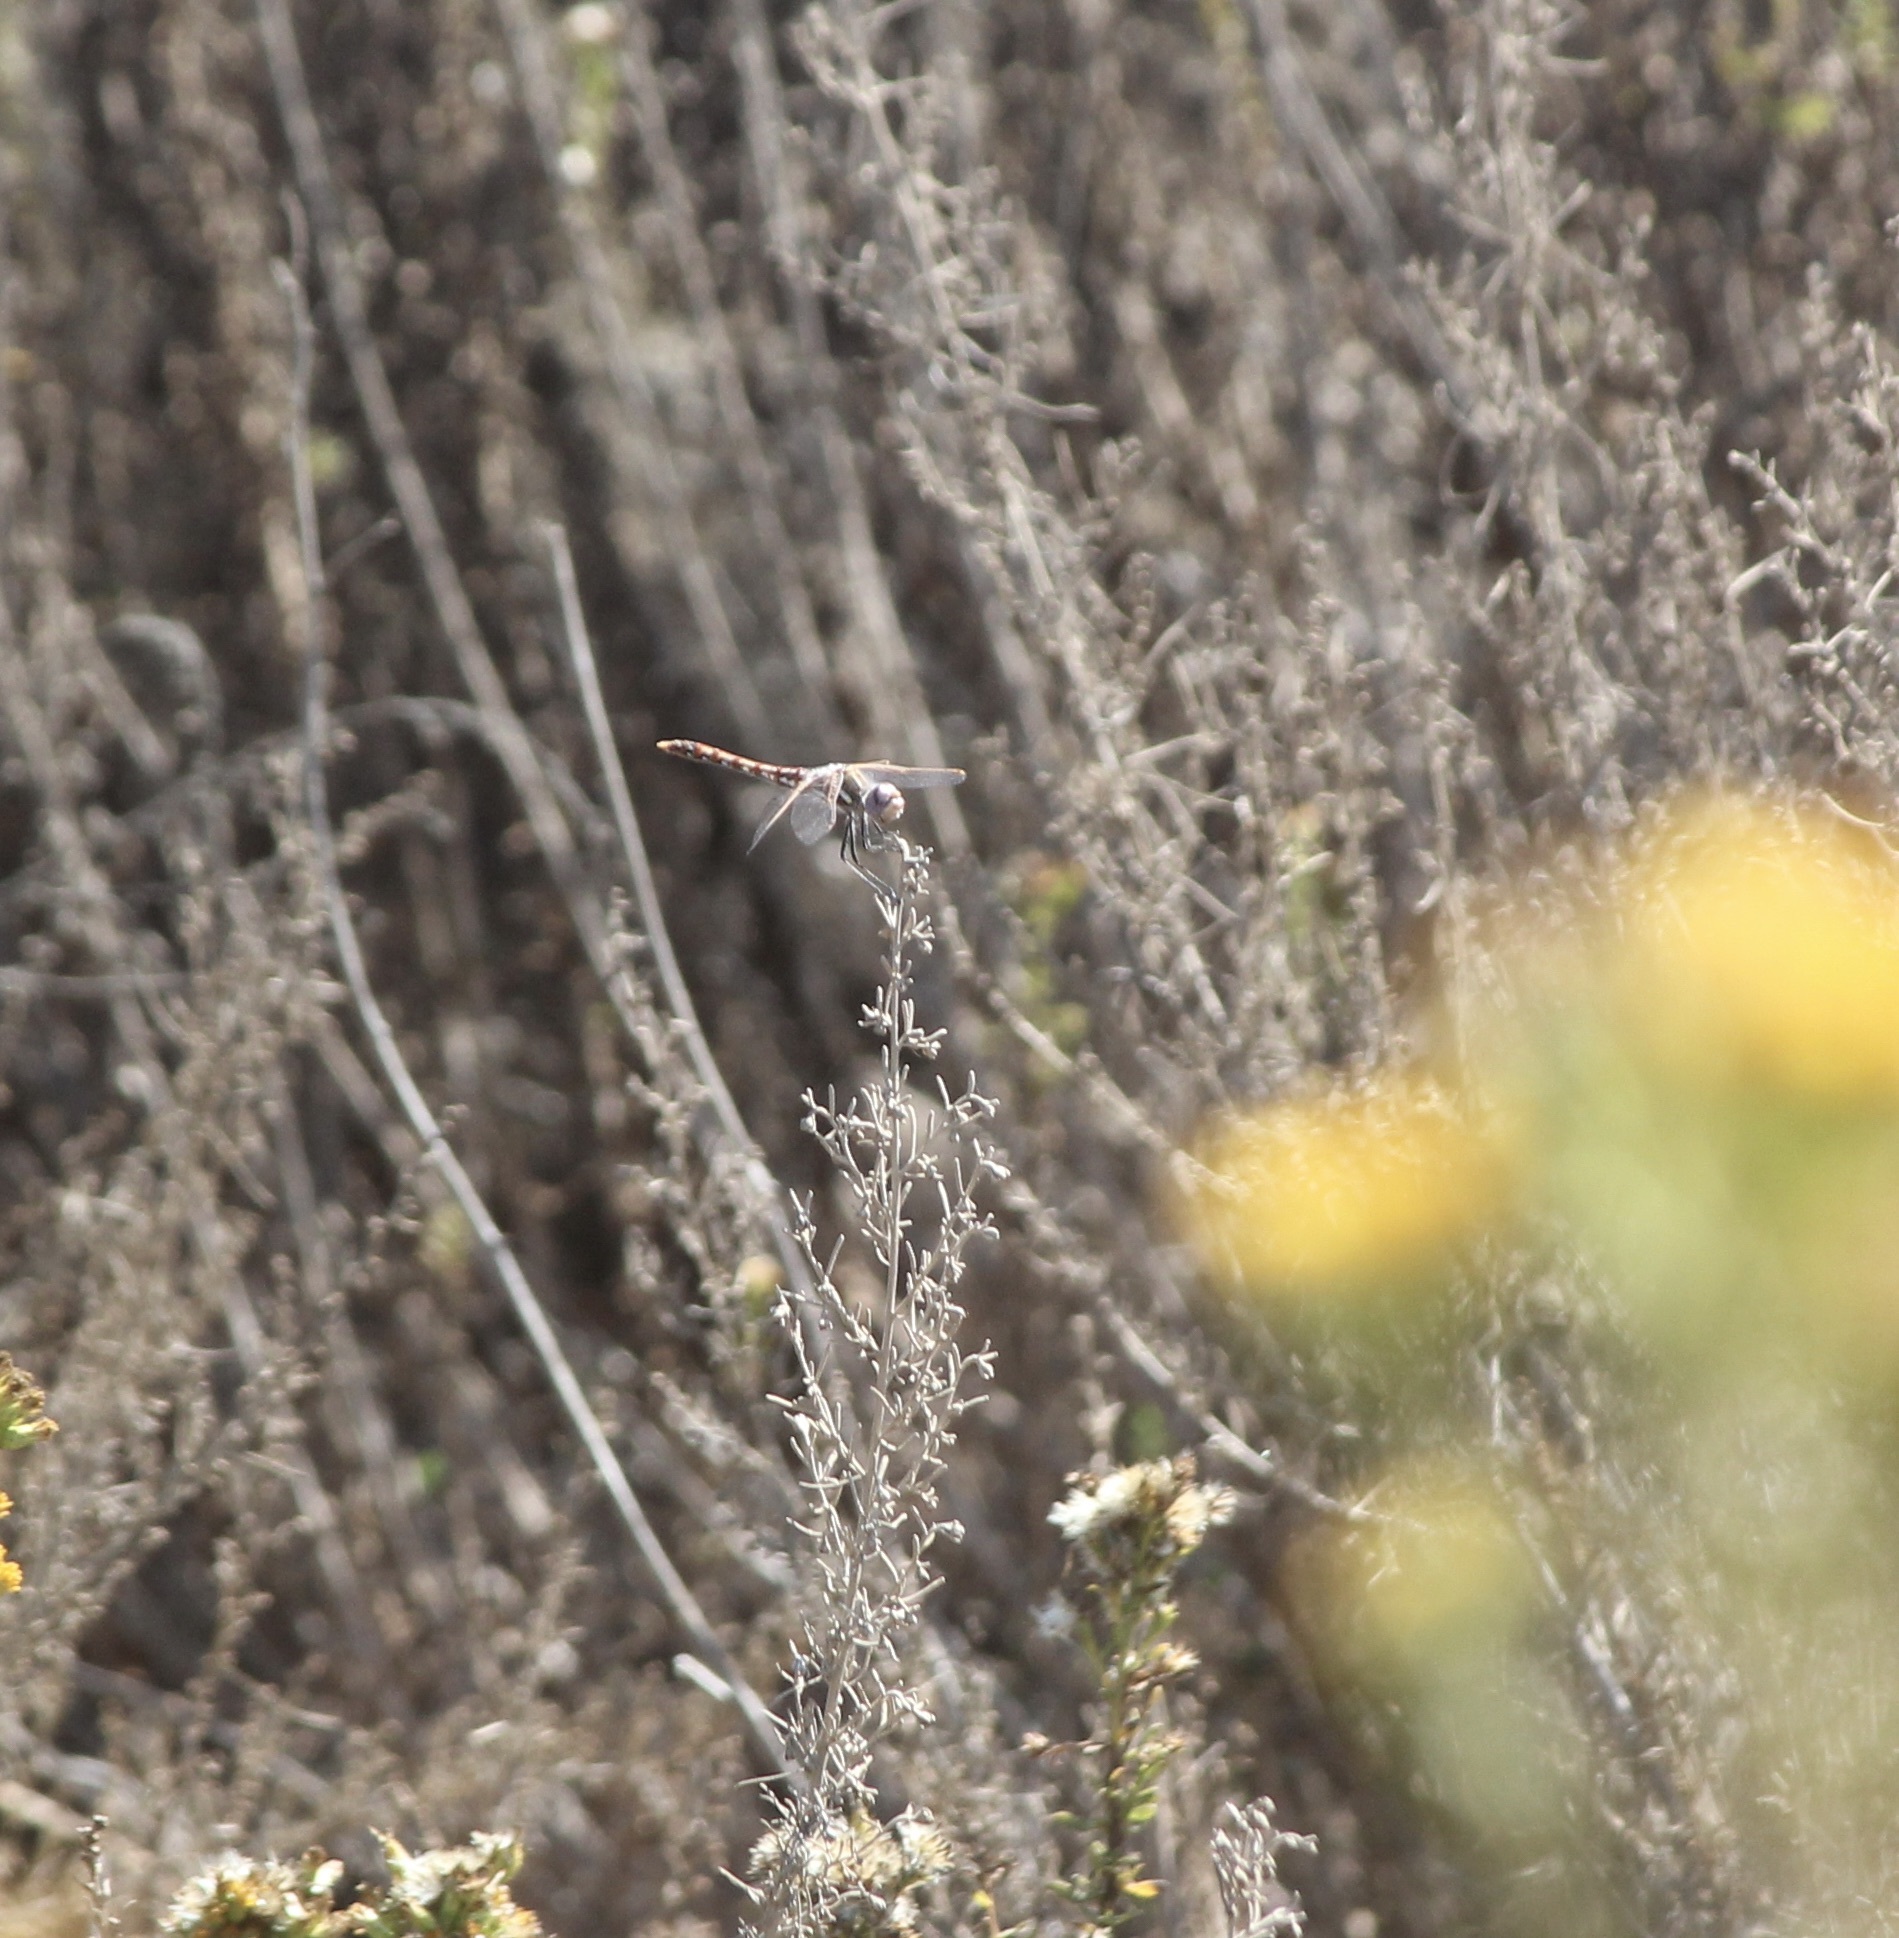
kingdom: Animalia
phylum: Arthropoda
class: Insecta
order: Odonata
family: Libellulidae
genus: Sympetrum
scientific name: Sympetrum corruptum
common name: Variegated meadowhawk
